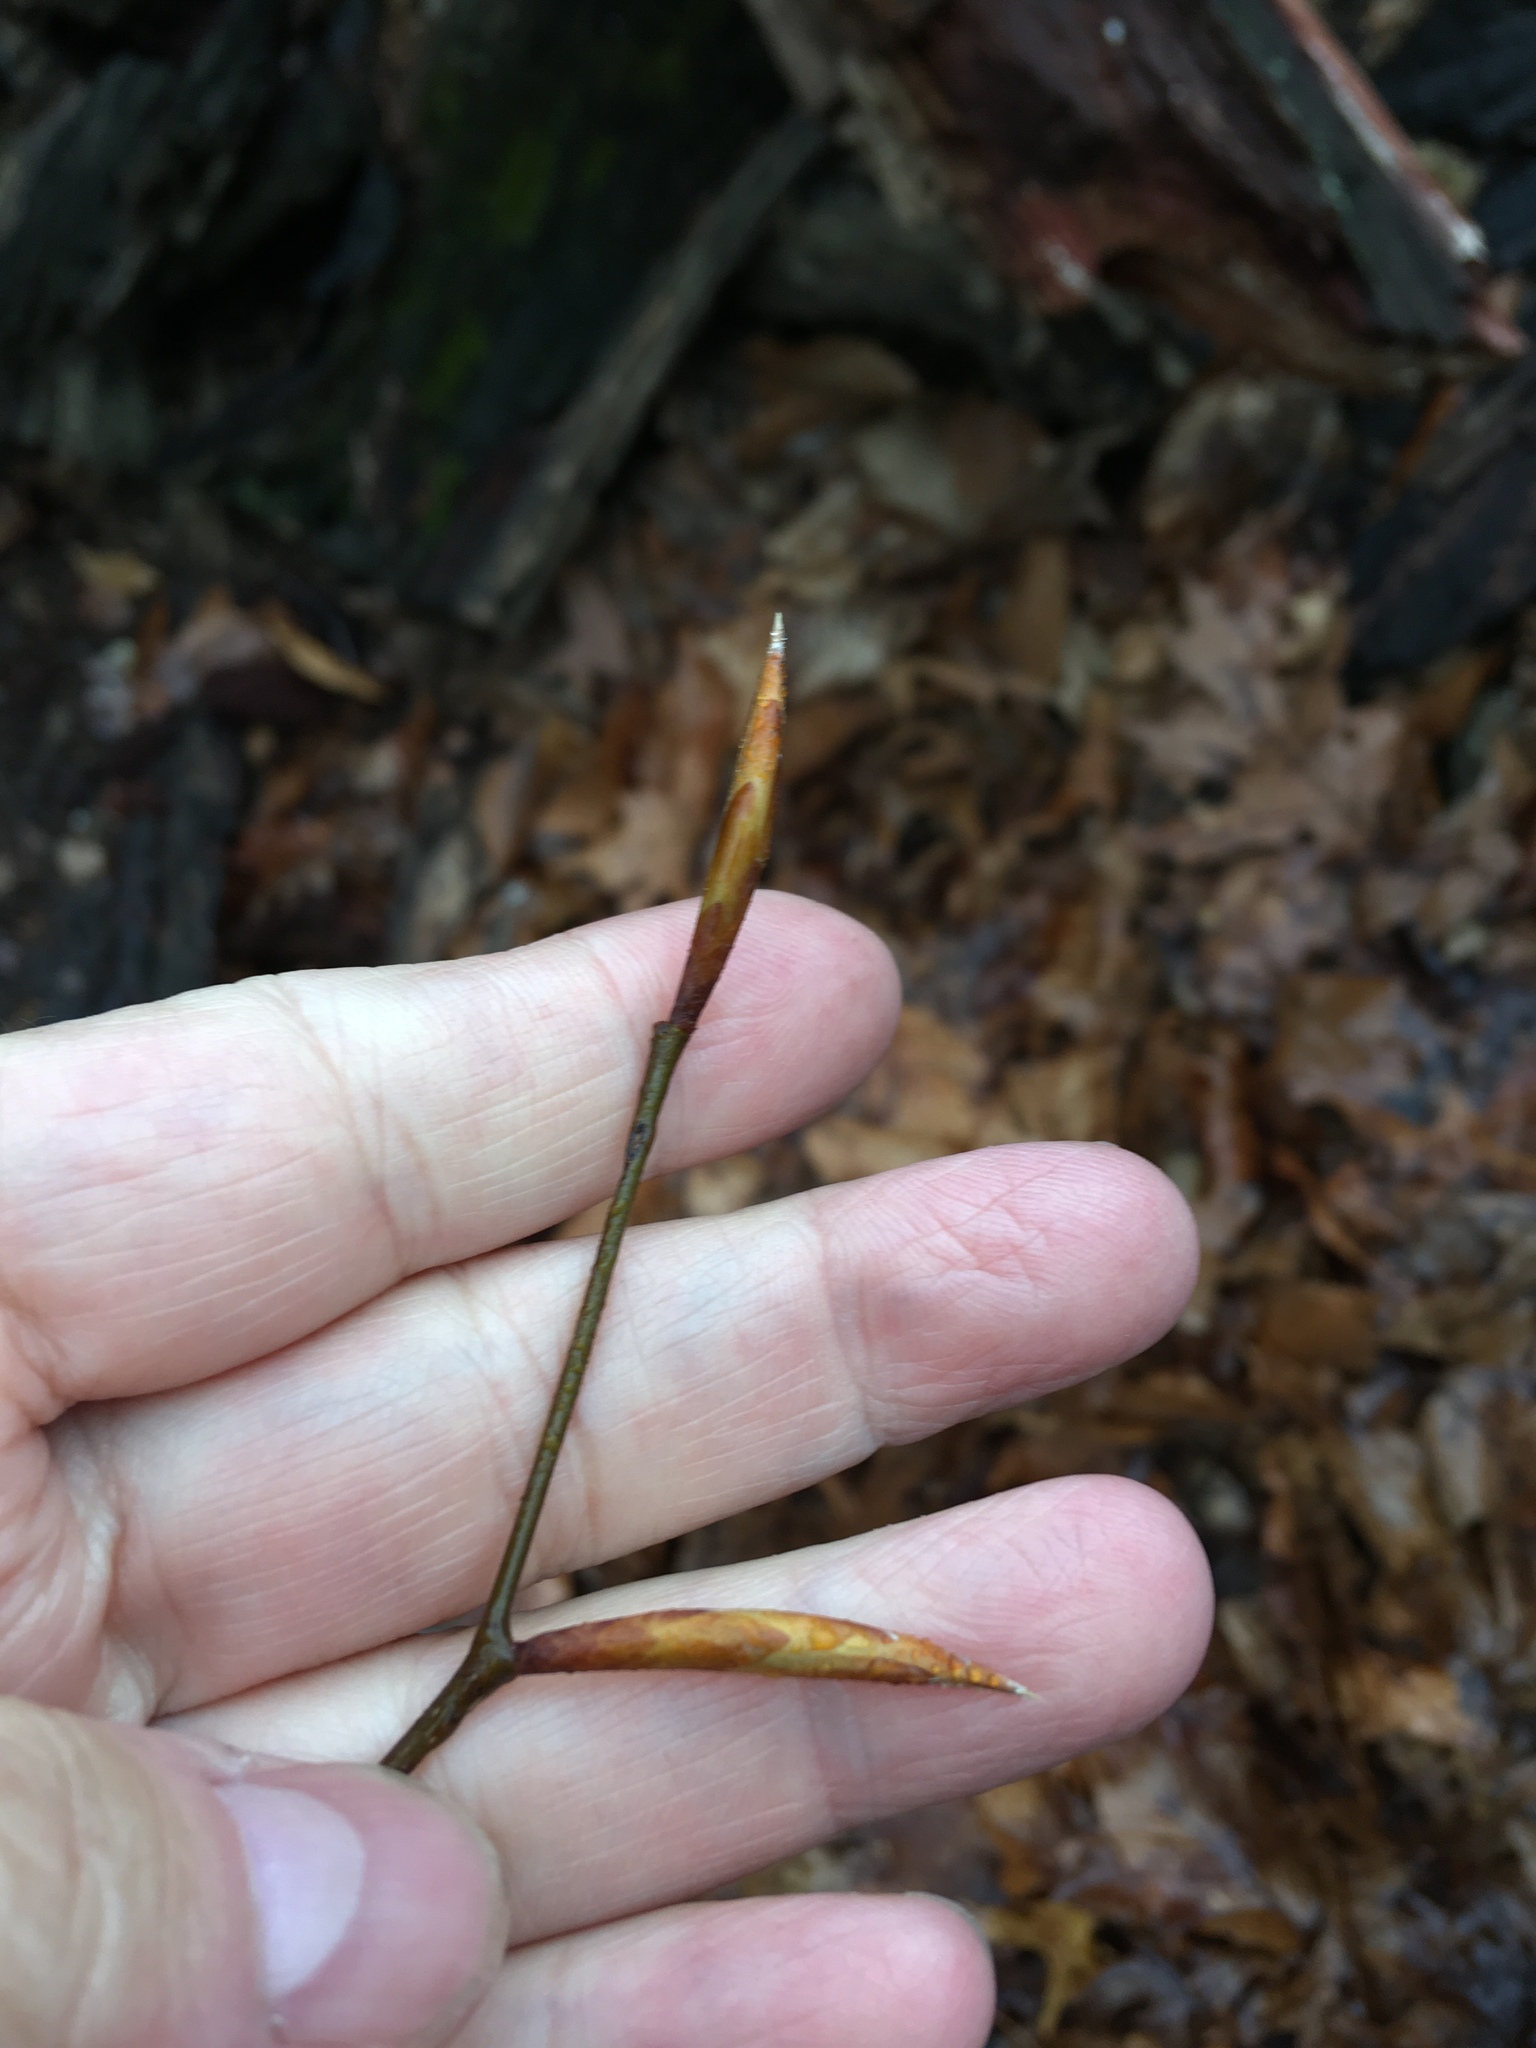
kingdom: Plantae
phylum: Tracheophyta
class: Magnoliopsida
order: Fagales
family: Fagaceae
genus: Fagus
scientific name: Fagus grandifolia
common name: American beech
